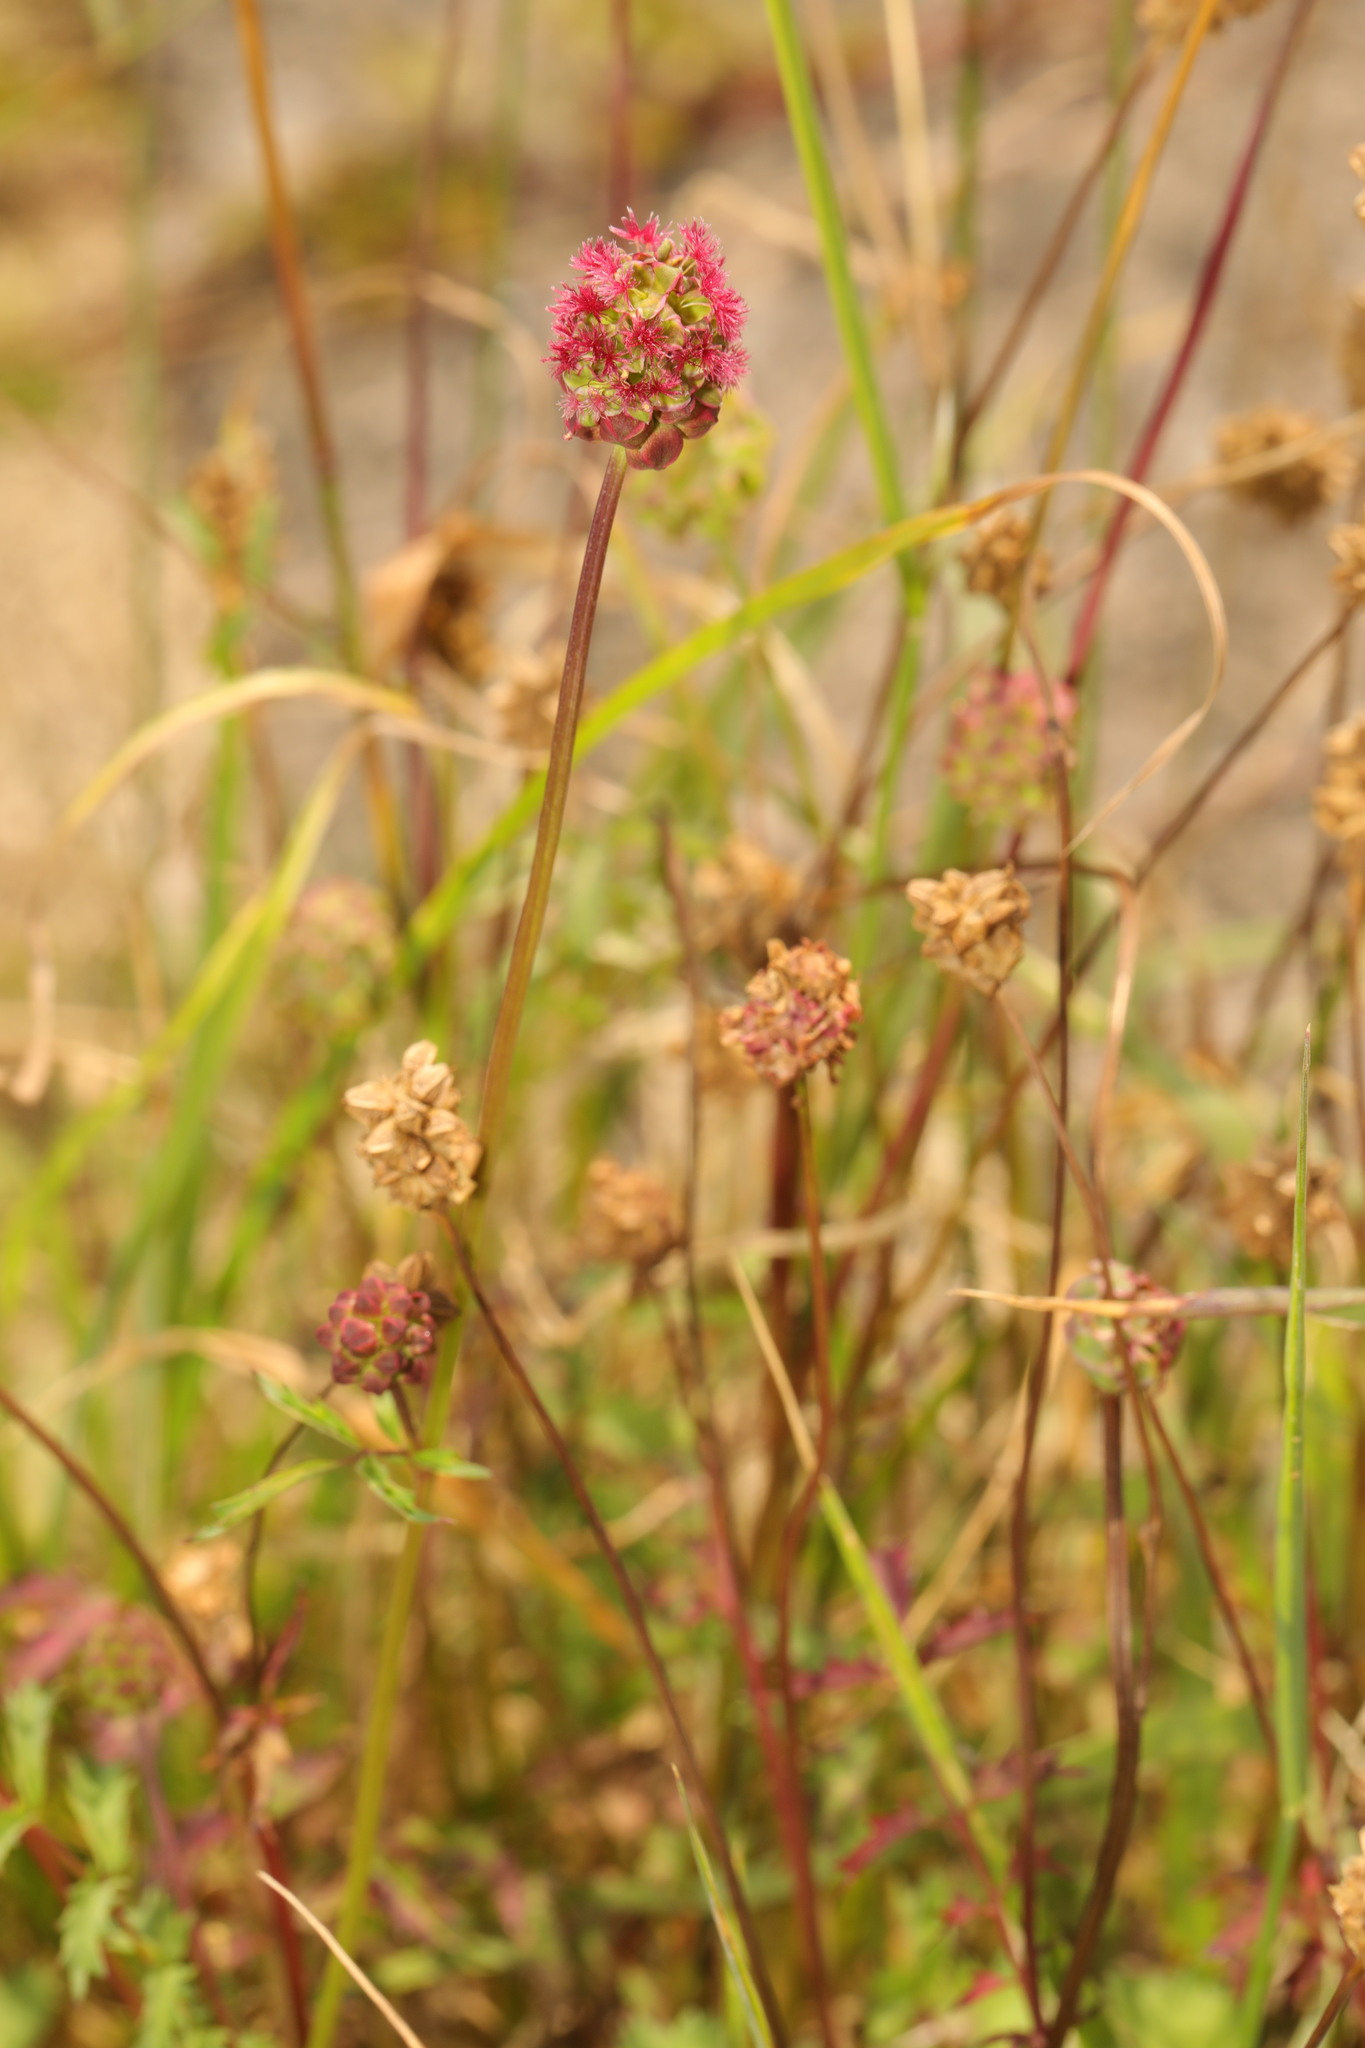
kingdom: Plantae
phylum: Tracheophyta
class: Magnoliopsida
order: Rosales
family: Rosaceae
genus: Poterium
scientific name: Poterium sanguisorba
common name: Salad burnet
